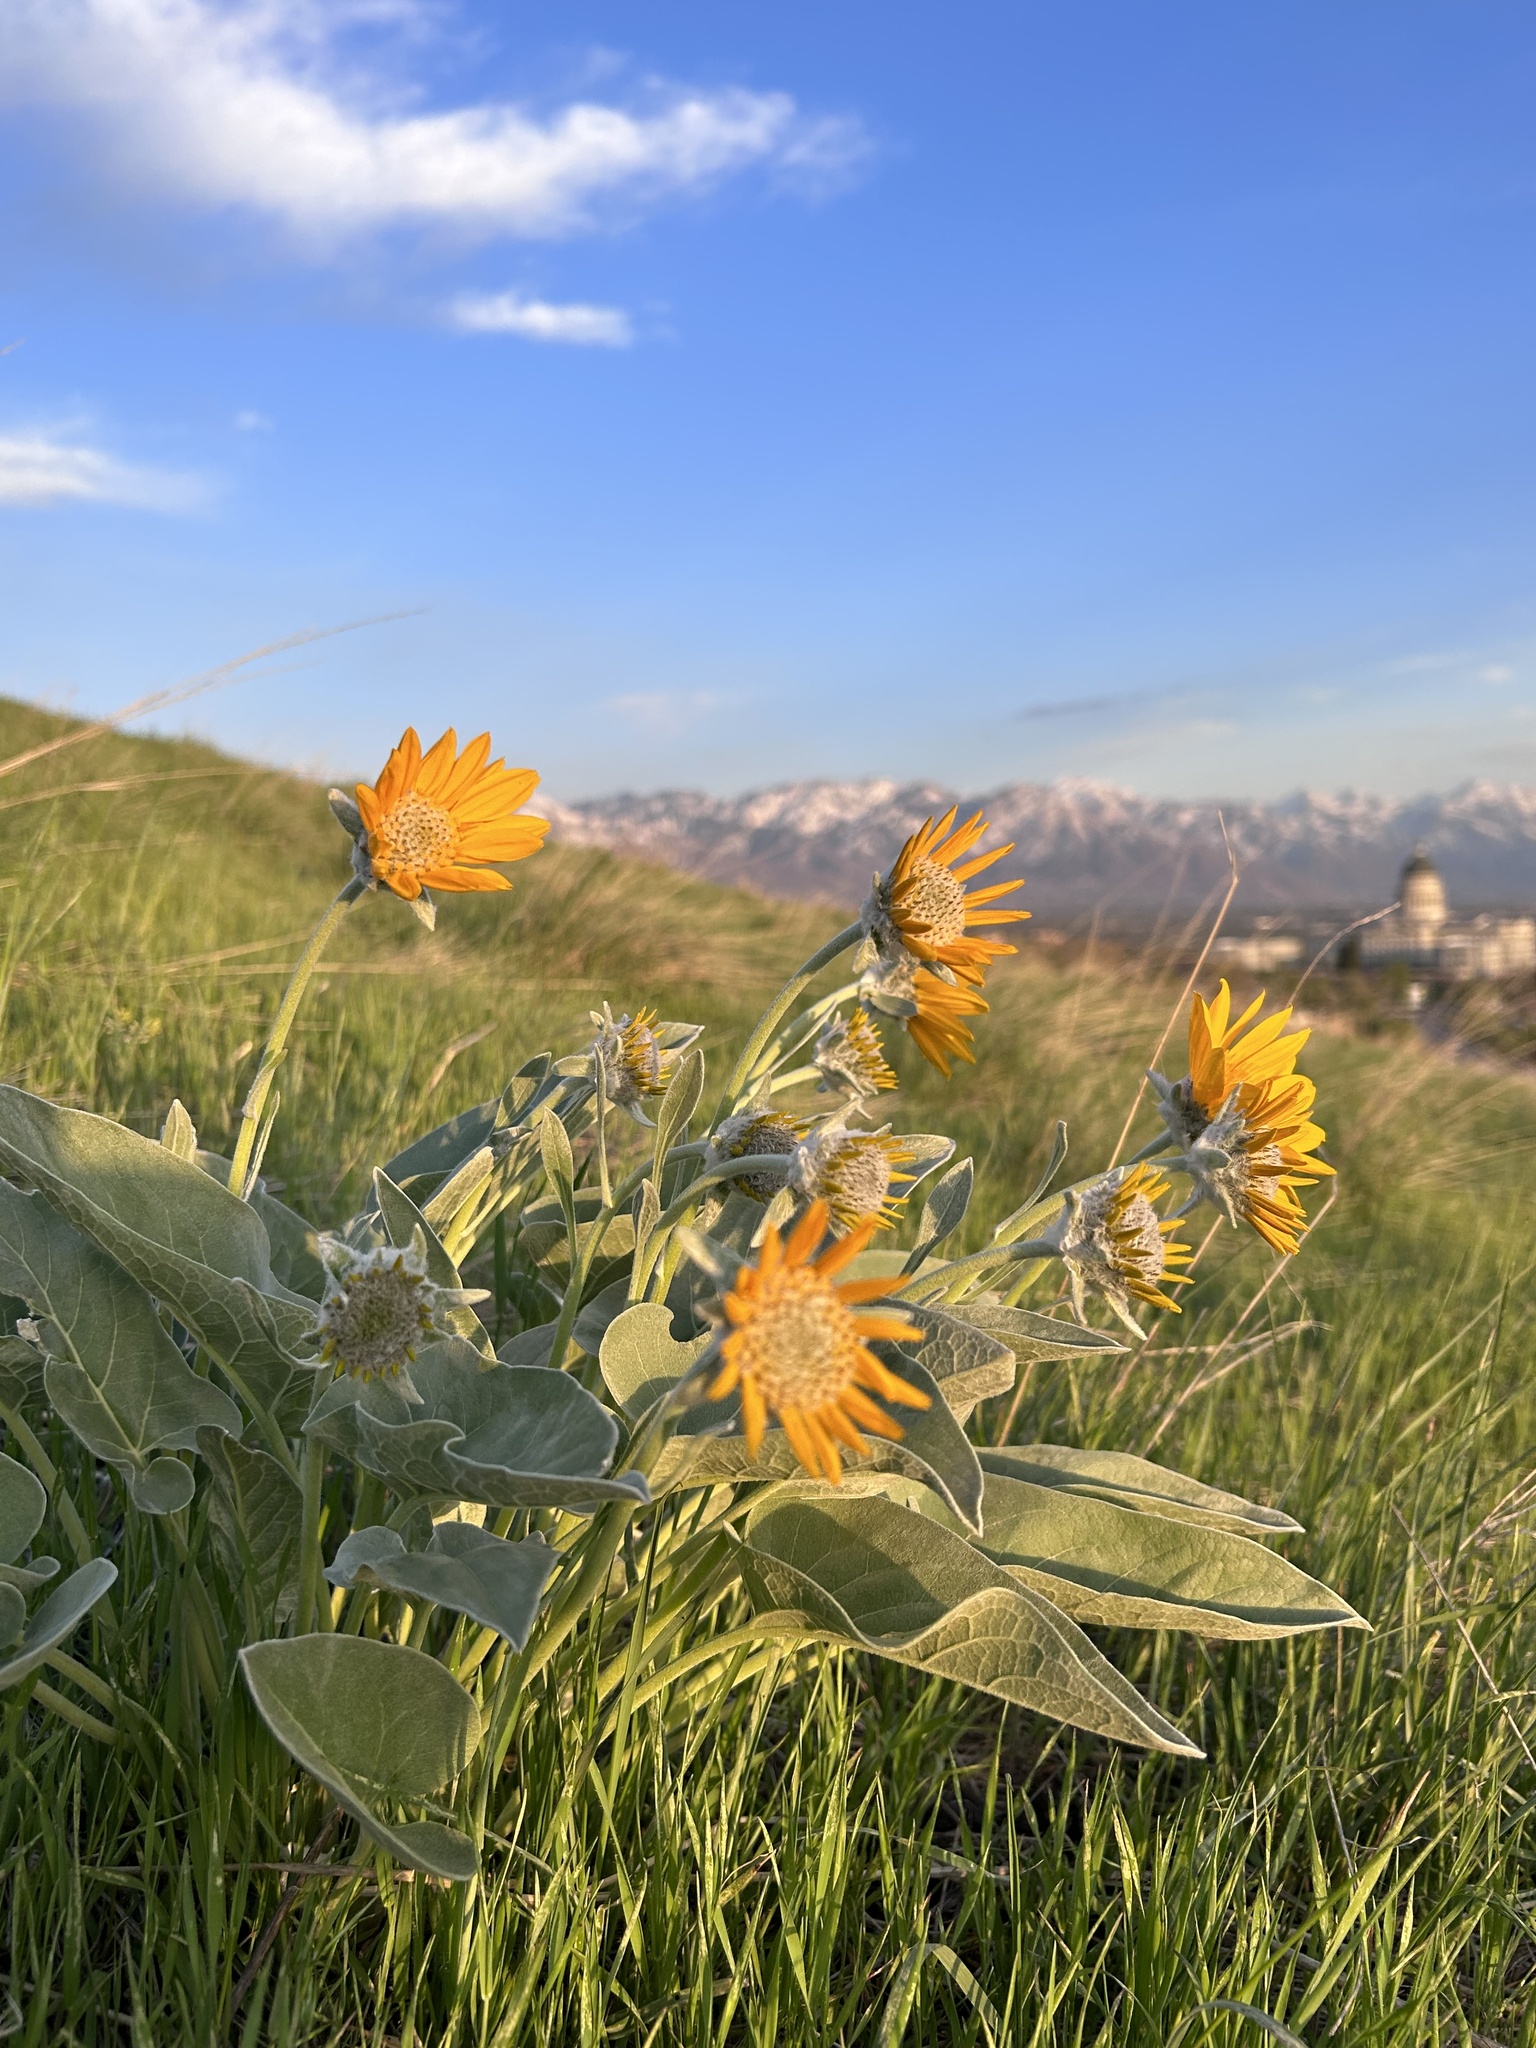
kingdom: Plantae
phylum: Tracheophyta
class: Magnoliopsida
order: Asterales
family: Asteraceae
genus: Wyethia
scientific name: Wyethia sagittata
